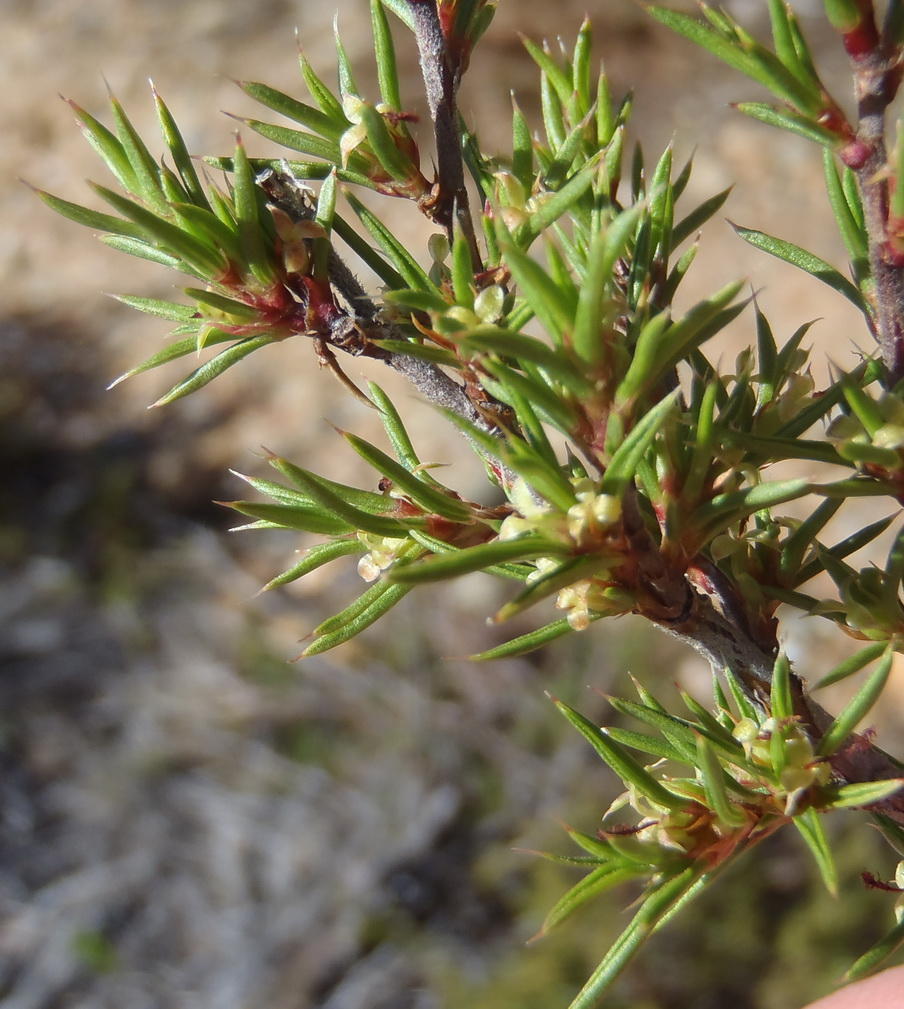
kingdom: Plantae
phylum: Tracheophyta
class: Magnoliopsida
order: Rosales
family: Rosaceae
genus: Cliffortia
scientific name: Cliffortia neglecta
